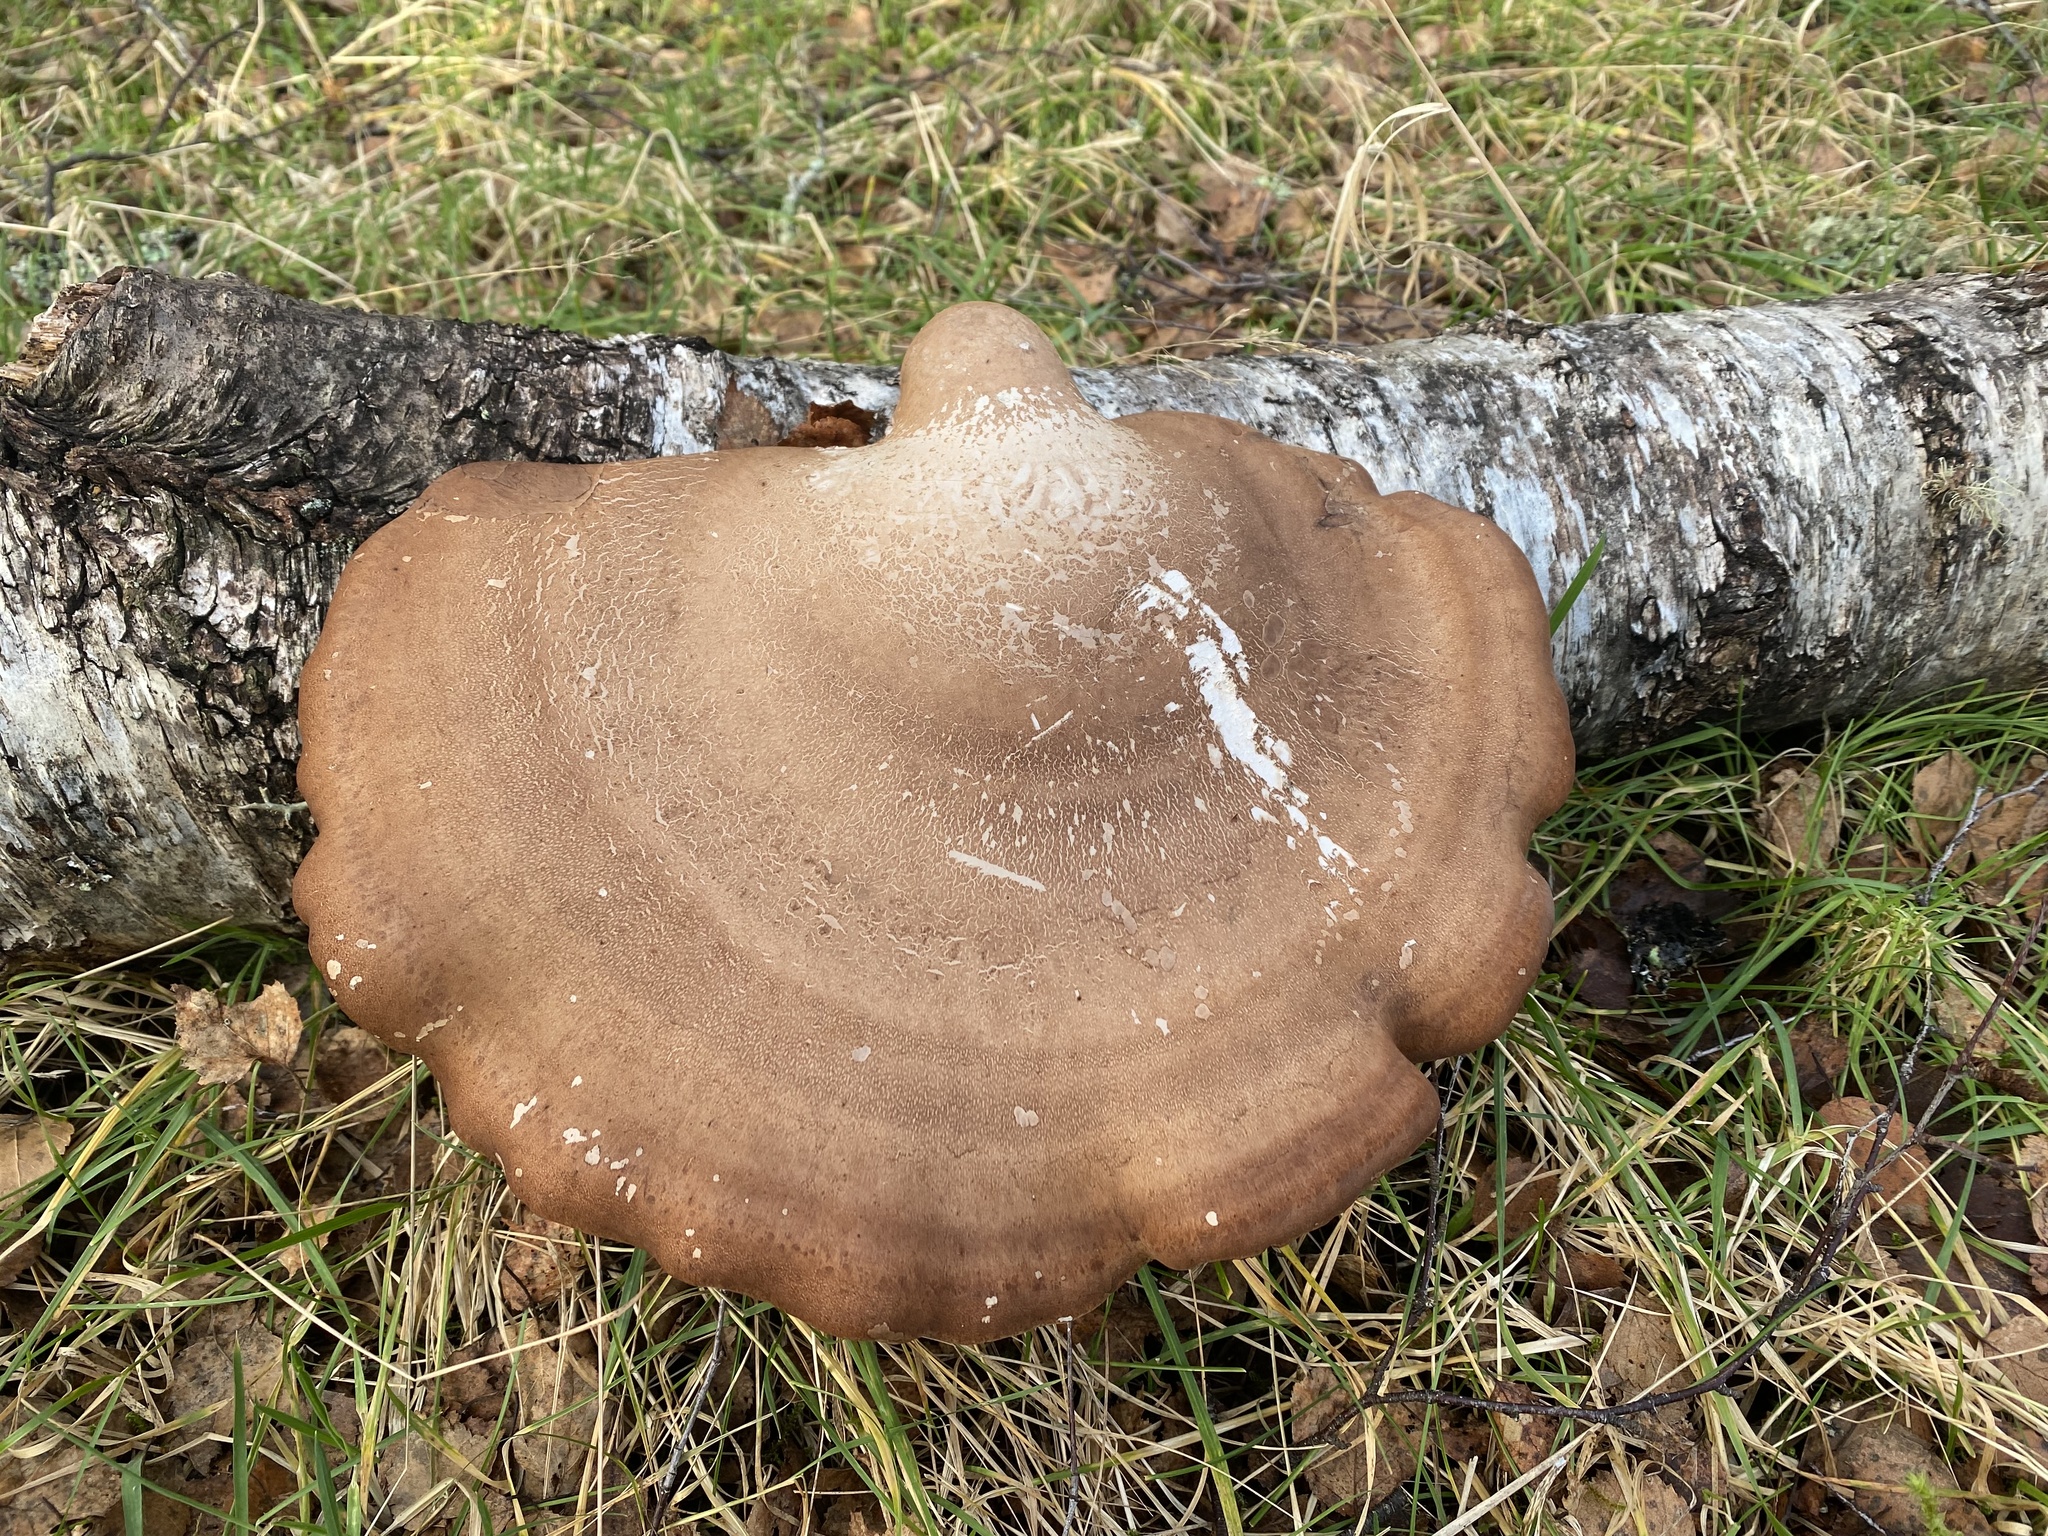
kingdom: Fungi
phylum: Basidiomycota
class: Agaricomycetes
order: Polyporales
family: Fomitopsidaceae
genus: Fomitopsis
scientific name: Fomitopsis betulina
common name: Birch polypore
